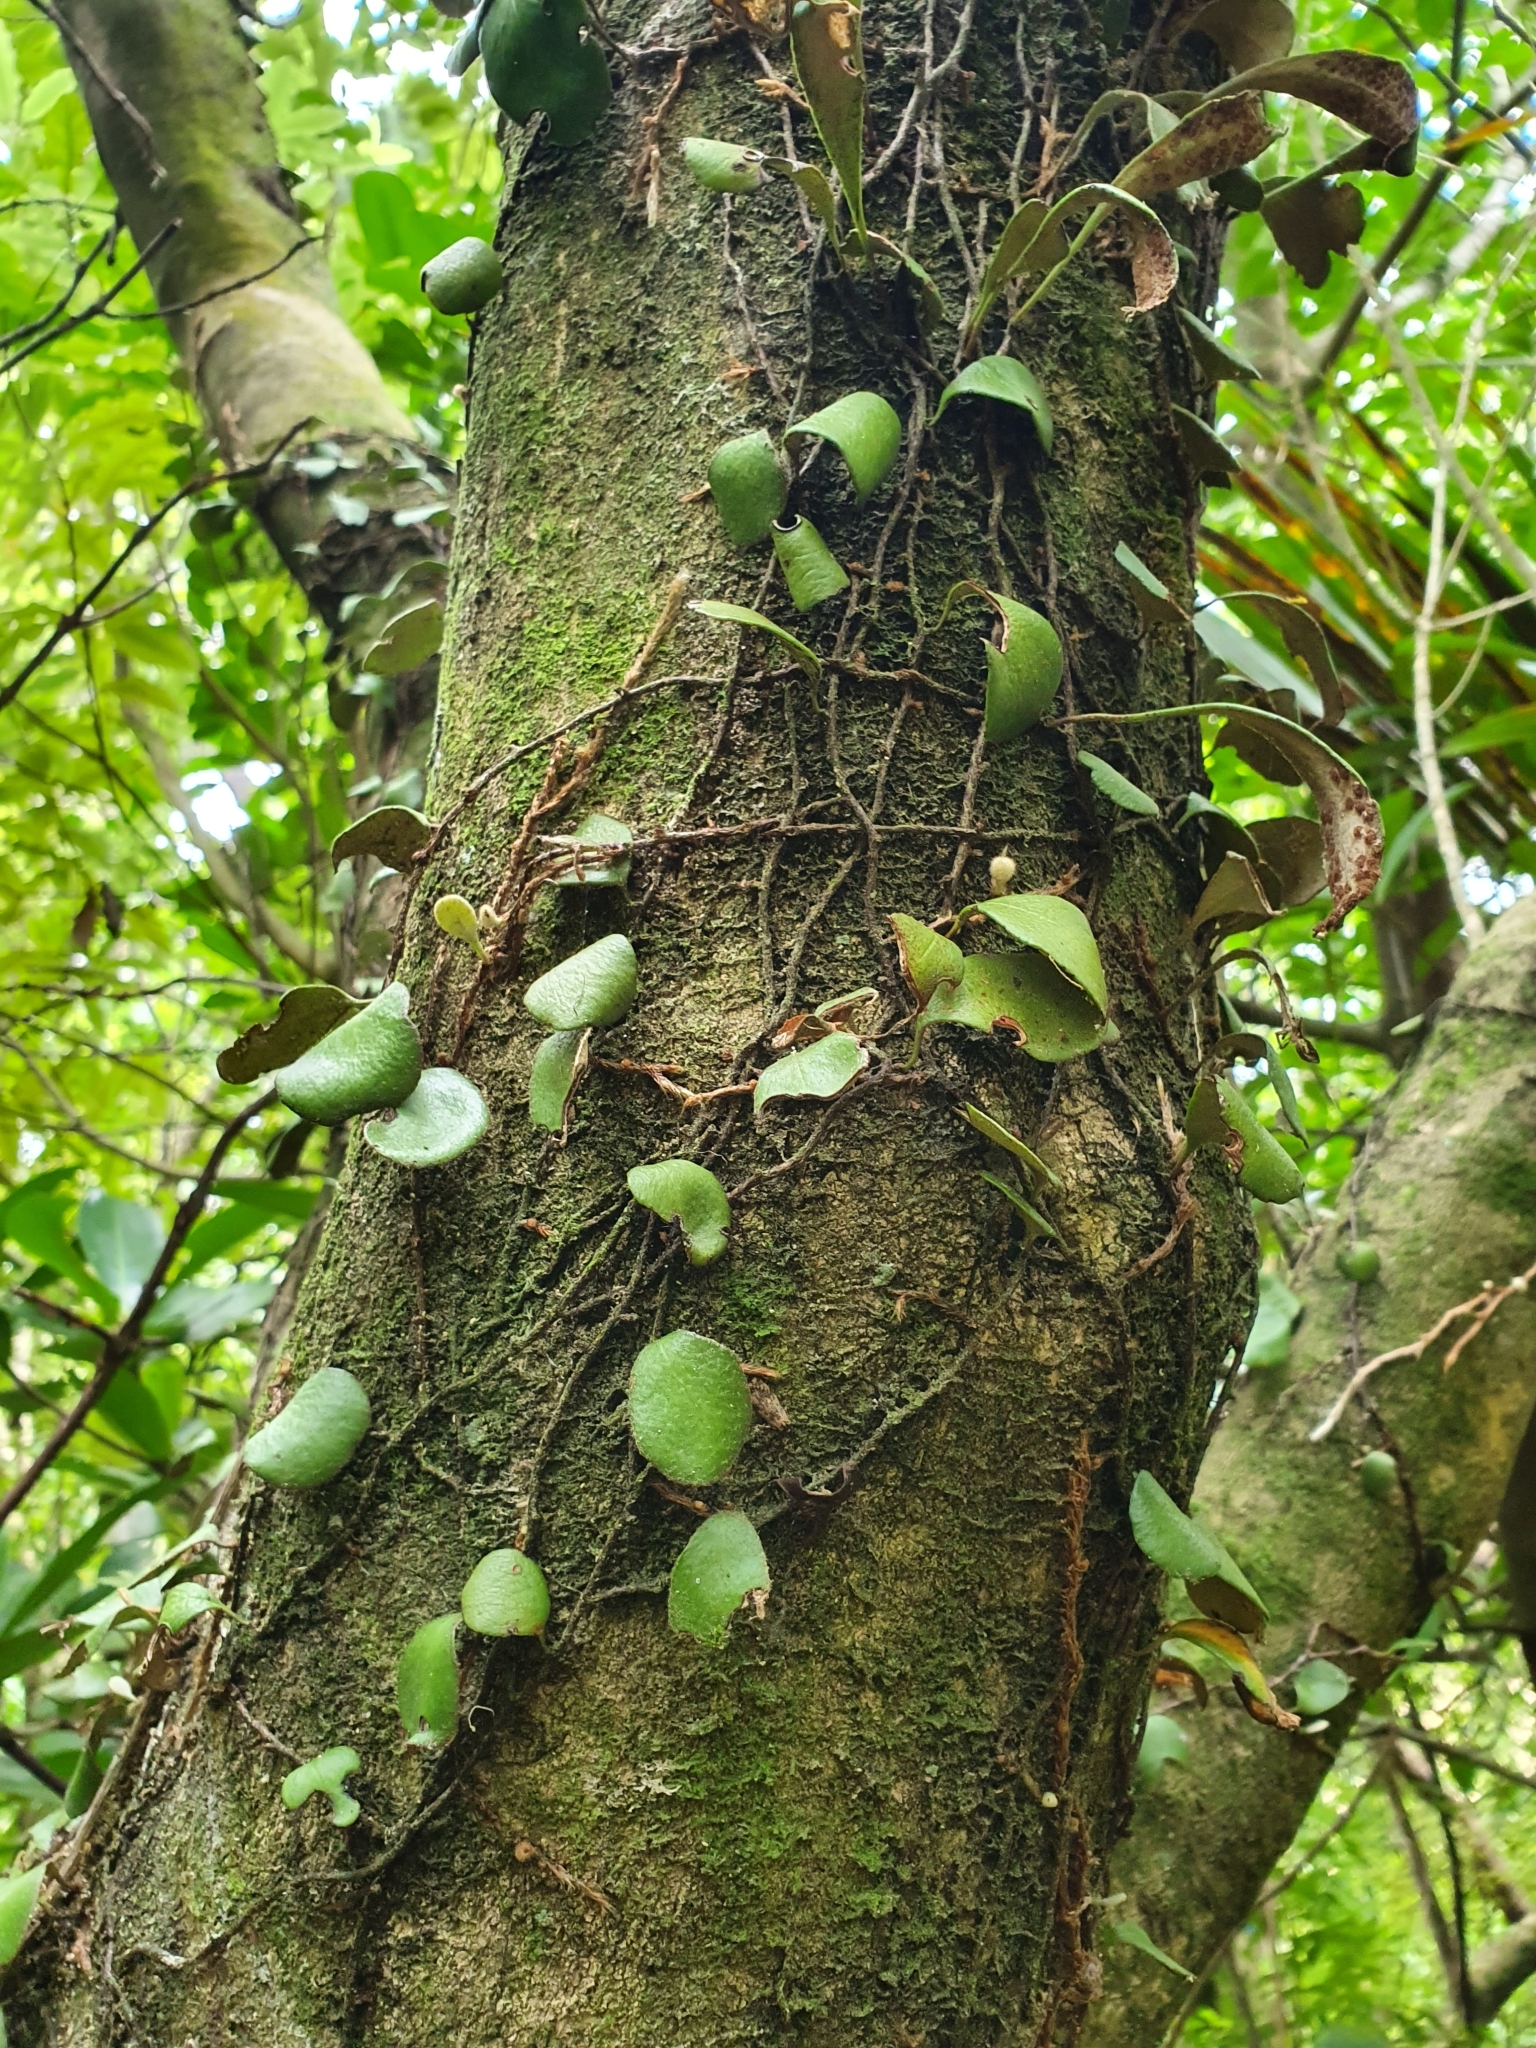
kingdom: Plantae
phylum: Tracheophyta
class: Polypodiopsida
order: Polypodiales
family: Polypodiaceae
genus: Pyrrosia
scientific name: Pyrrosia eleagnifolia
